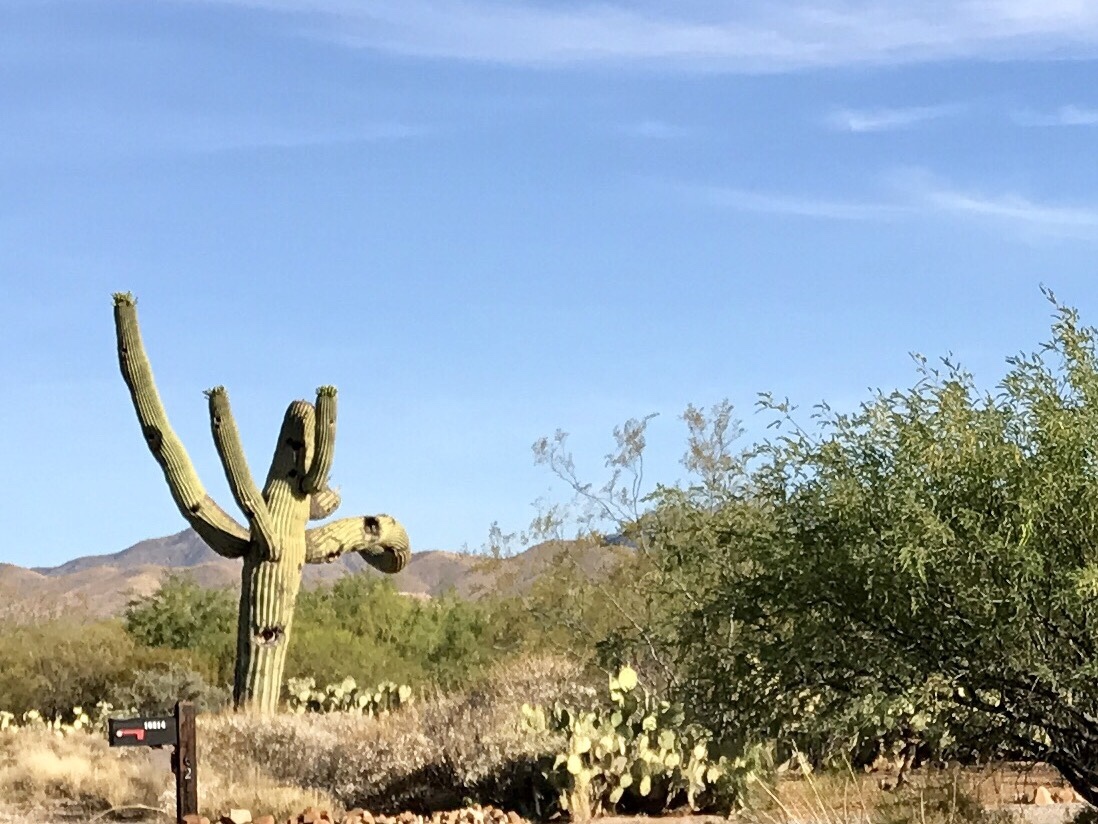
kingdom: Plantae
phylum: Tracheophyta
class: Magnoliopsida
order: Caryophyllales
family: Cactaceae
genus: Carnegiea
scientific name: Carnegiea gigantea
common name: Saguaro
